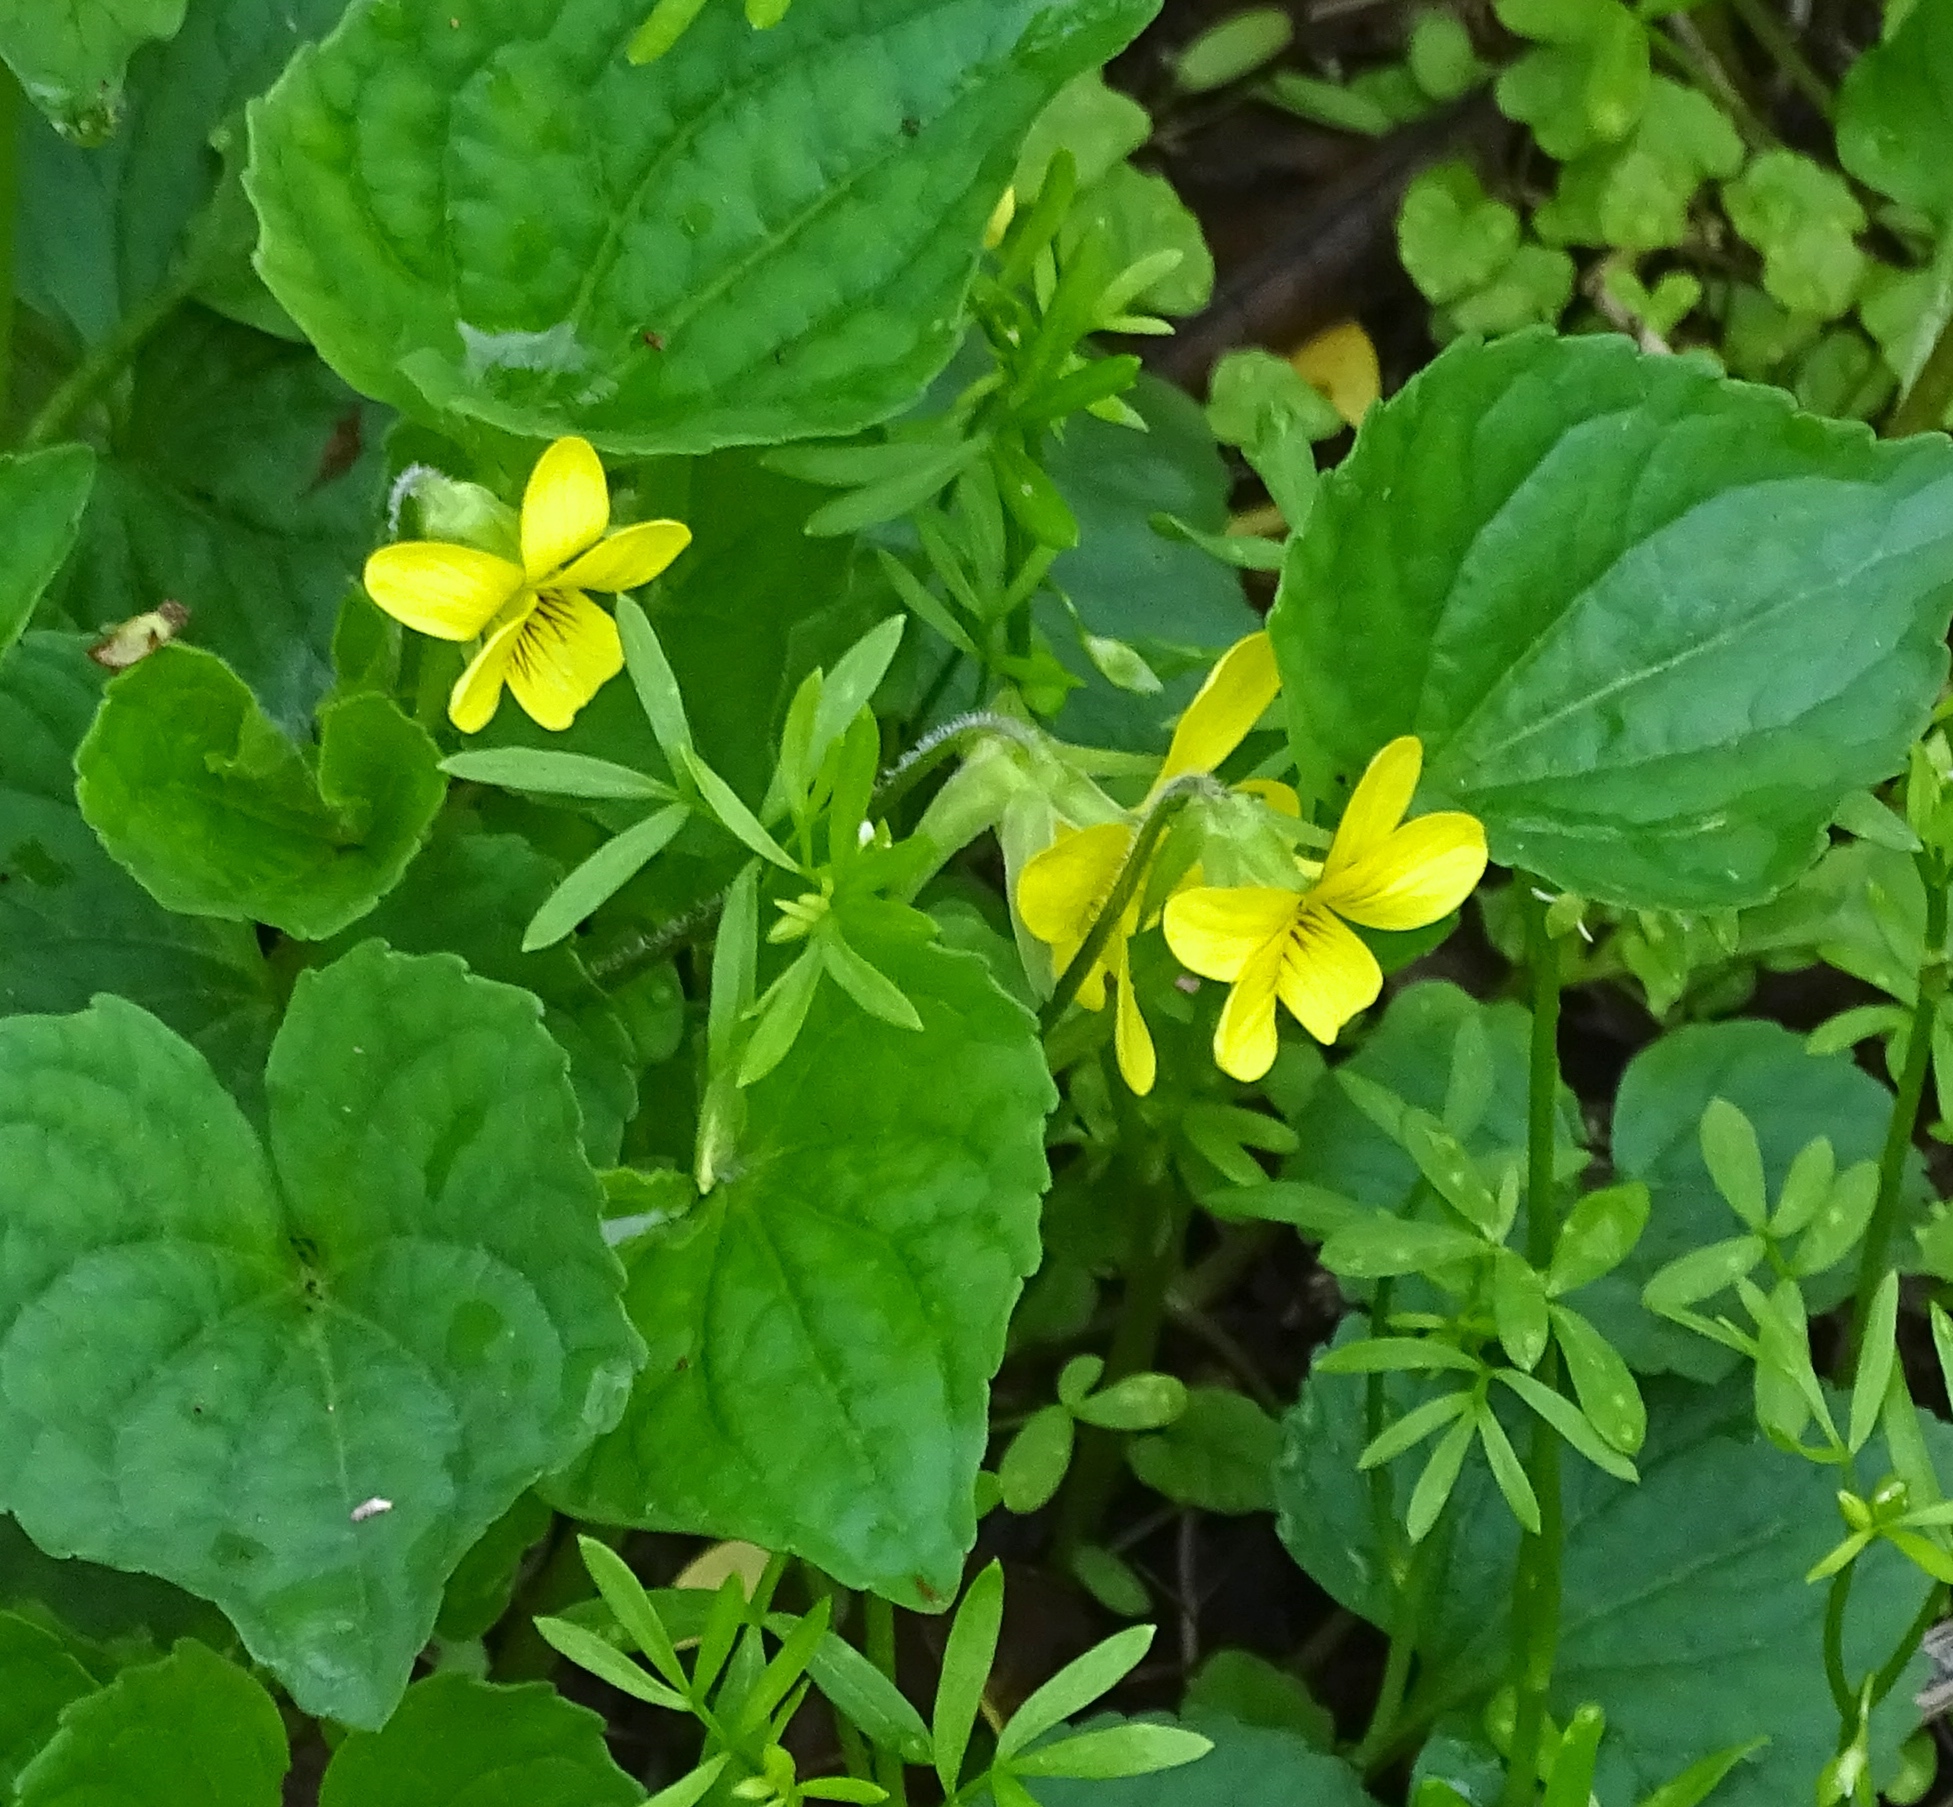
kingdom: Plantae
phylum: Tracheophyta
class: Magnoliopsida
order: Malpighiales
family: Violaceae
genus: Viola
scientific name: Viola eriocarpa
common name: Smooth yellow violet
